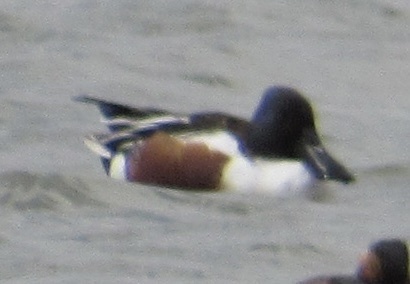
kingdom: Animalia
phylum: Chordata
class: Aves
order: Anseriformes
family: Anatidae
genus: Spatula
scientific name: Spatula clypeata
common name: Northern shoveler
